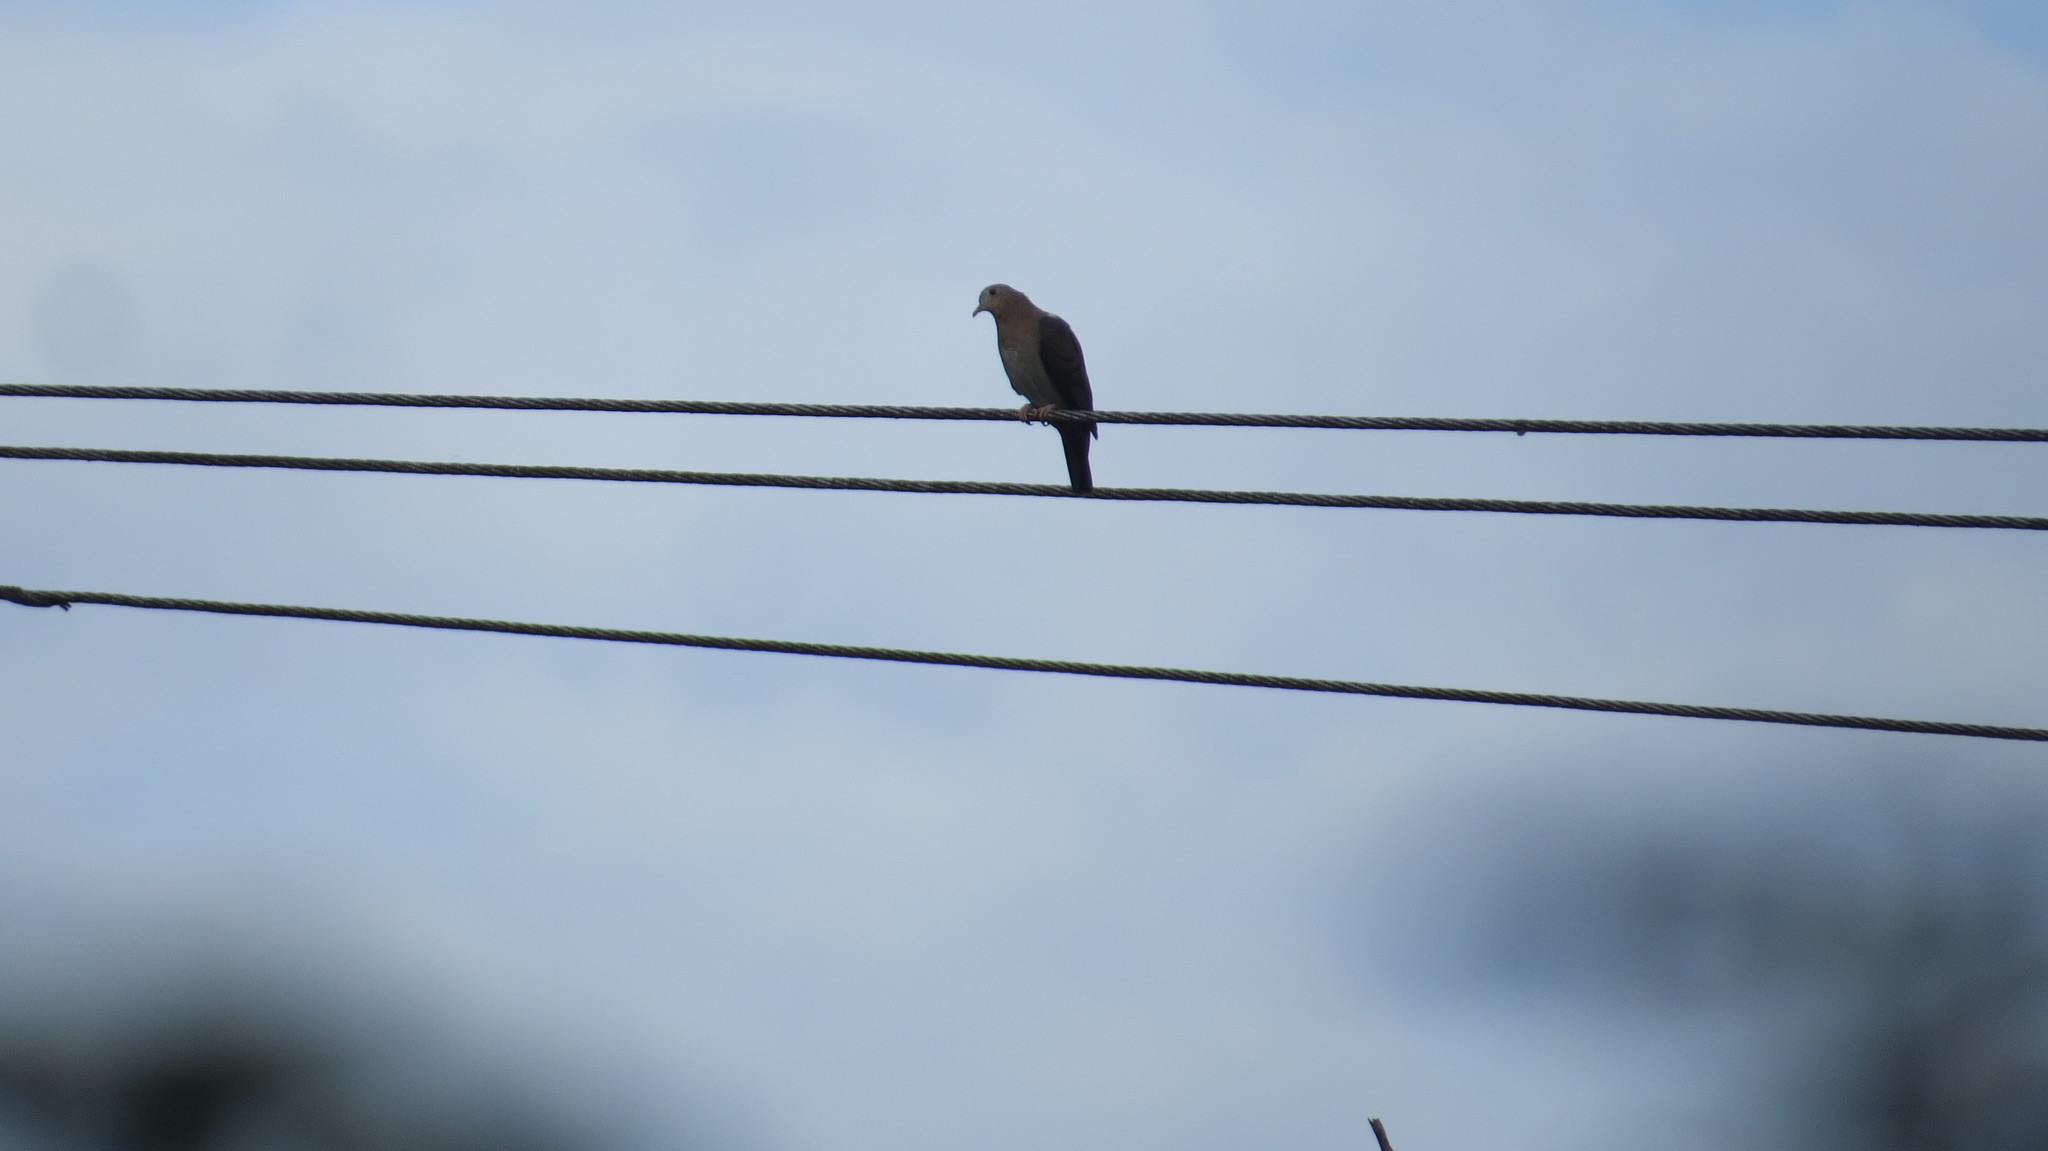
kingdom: Animalia
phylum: Chordata
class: Aves
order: Columbiformes
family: Columbidae
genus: Columbina
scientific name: Columbina talpacoti
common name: Ruddy ground dove
